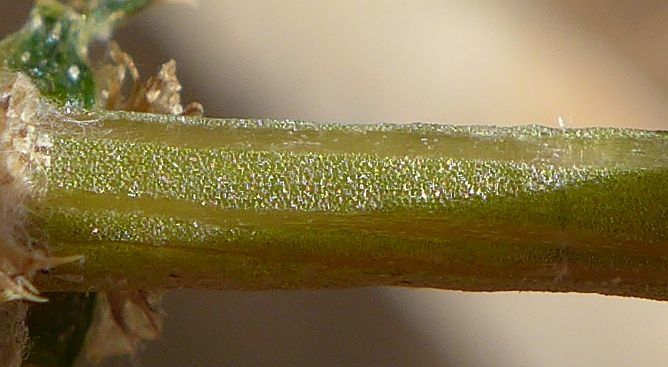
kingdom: Plantae
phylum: Tracheophyta
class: Magnoliopsida
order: Caryophyllales
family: Amaranthaceae
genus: Salsola
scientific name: Salsola paulsenii
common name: Barbwire russian thistle
